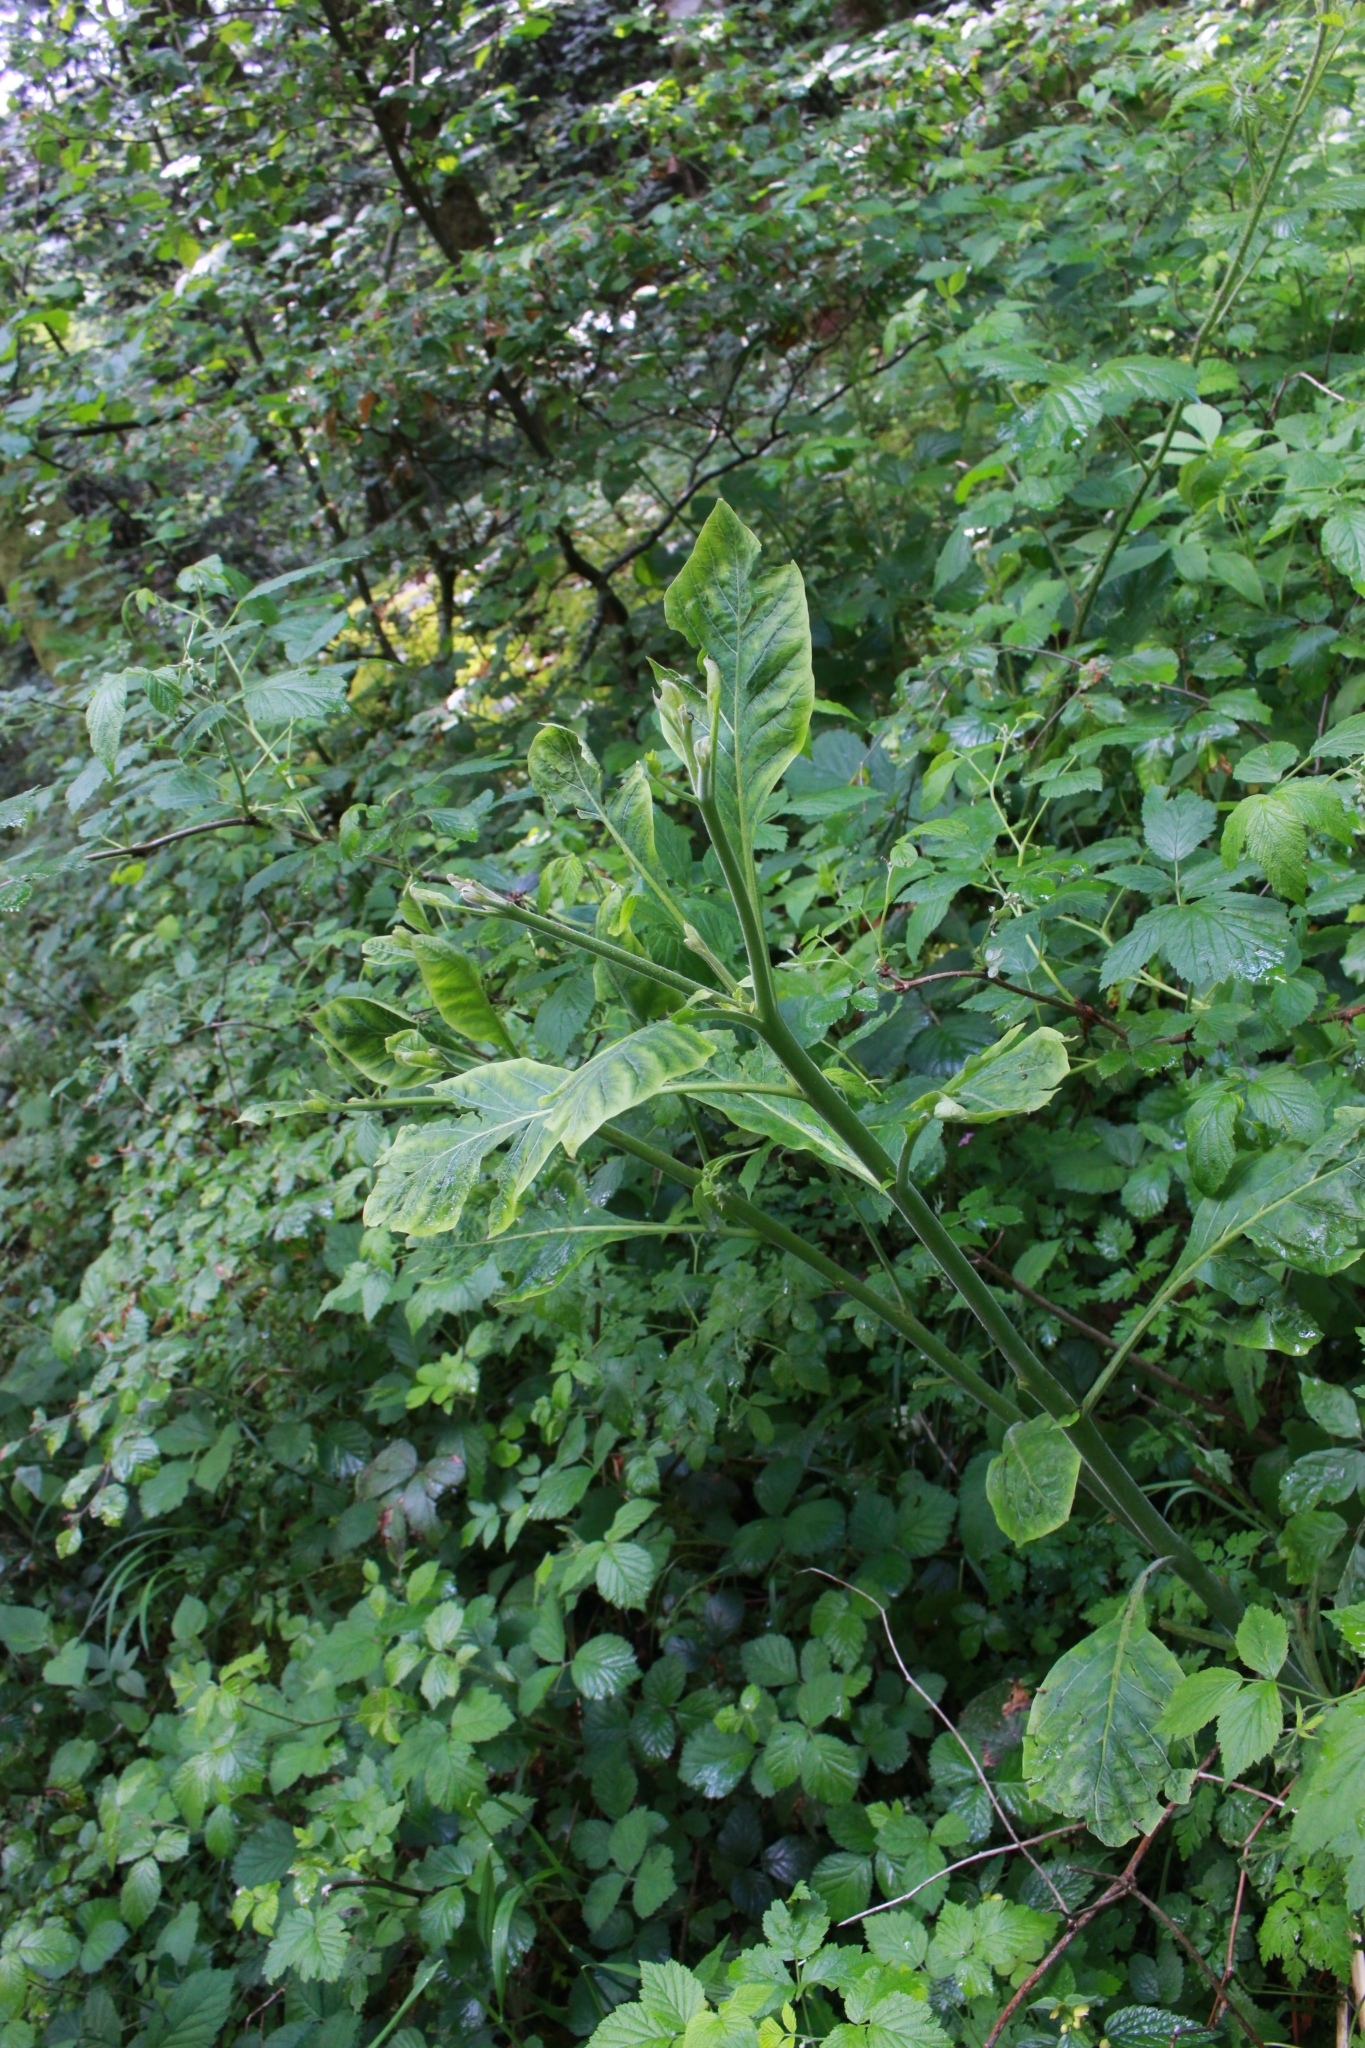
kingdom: Plantae
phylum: Tracheophyta
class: Magnoliopsida
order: Solanales
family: Solanaceae
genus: Atropa
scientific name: Atropa belladonna
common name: Deadly nightshade
